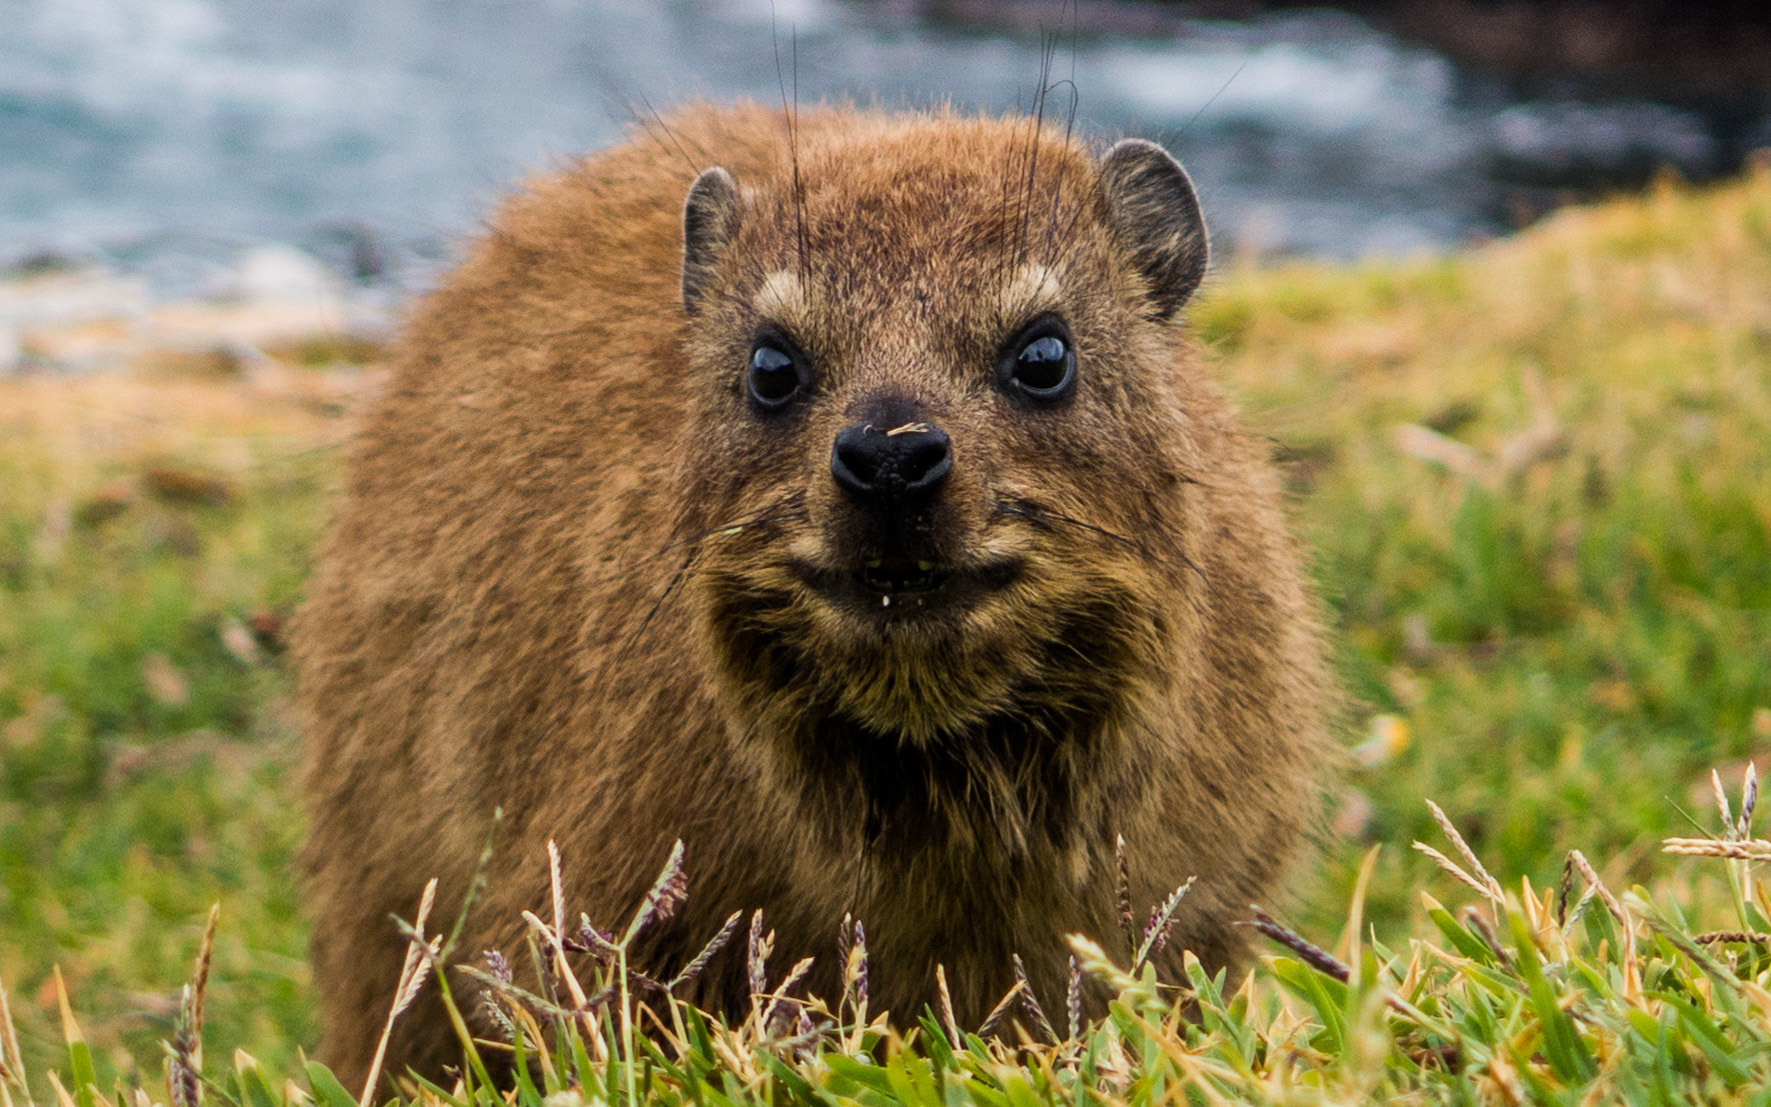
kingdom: Animalia
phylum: Chordata
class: Mammalia
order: Hyracoidea
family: Procaviidae
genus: Procavia
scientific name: Procavia capensis
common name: Rock hyrax
